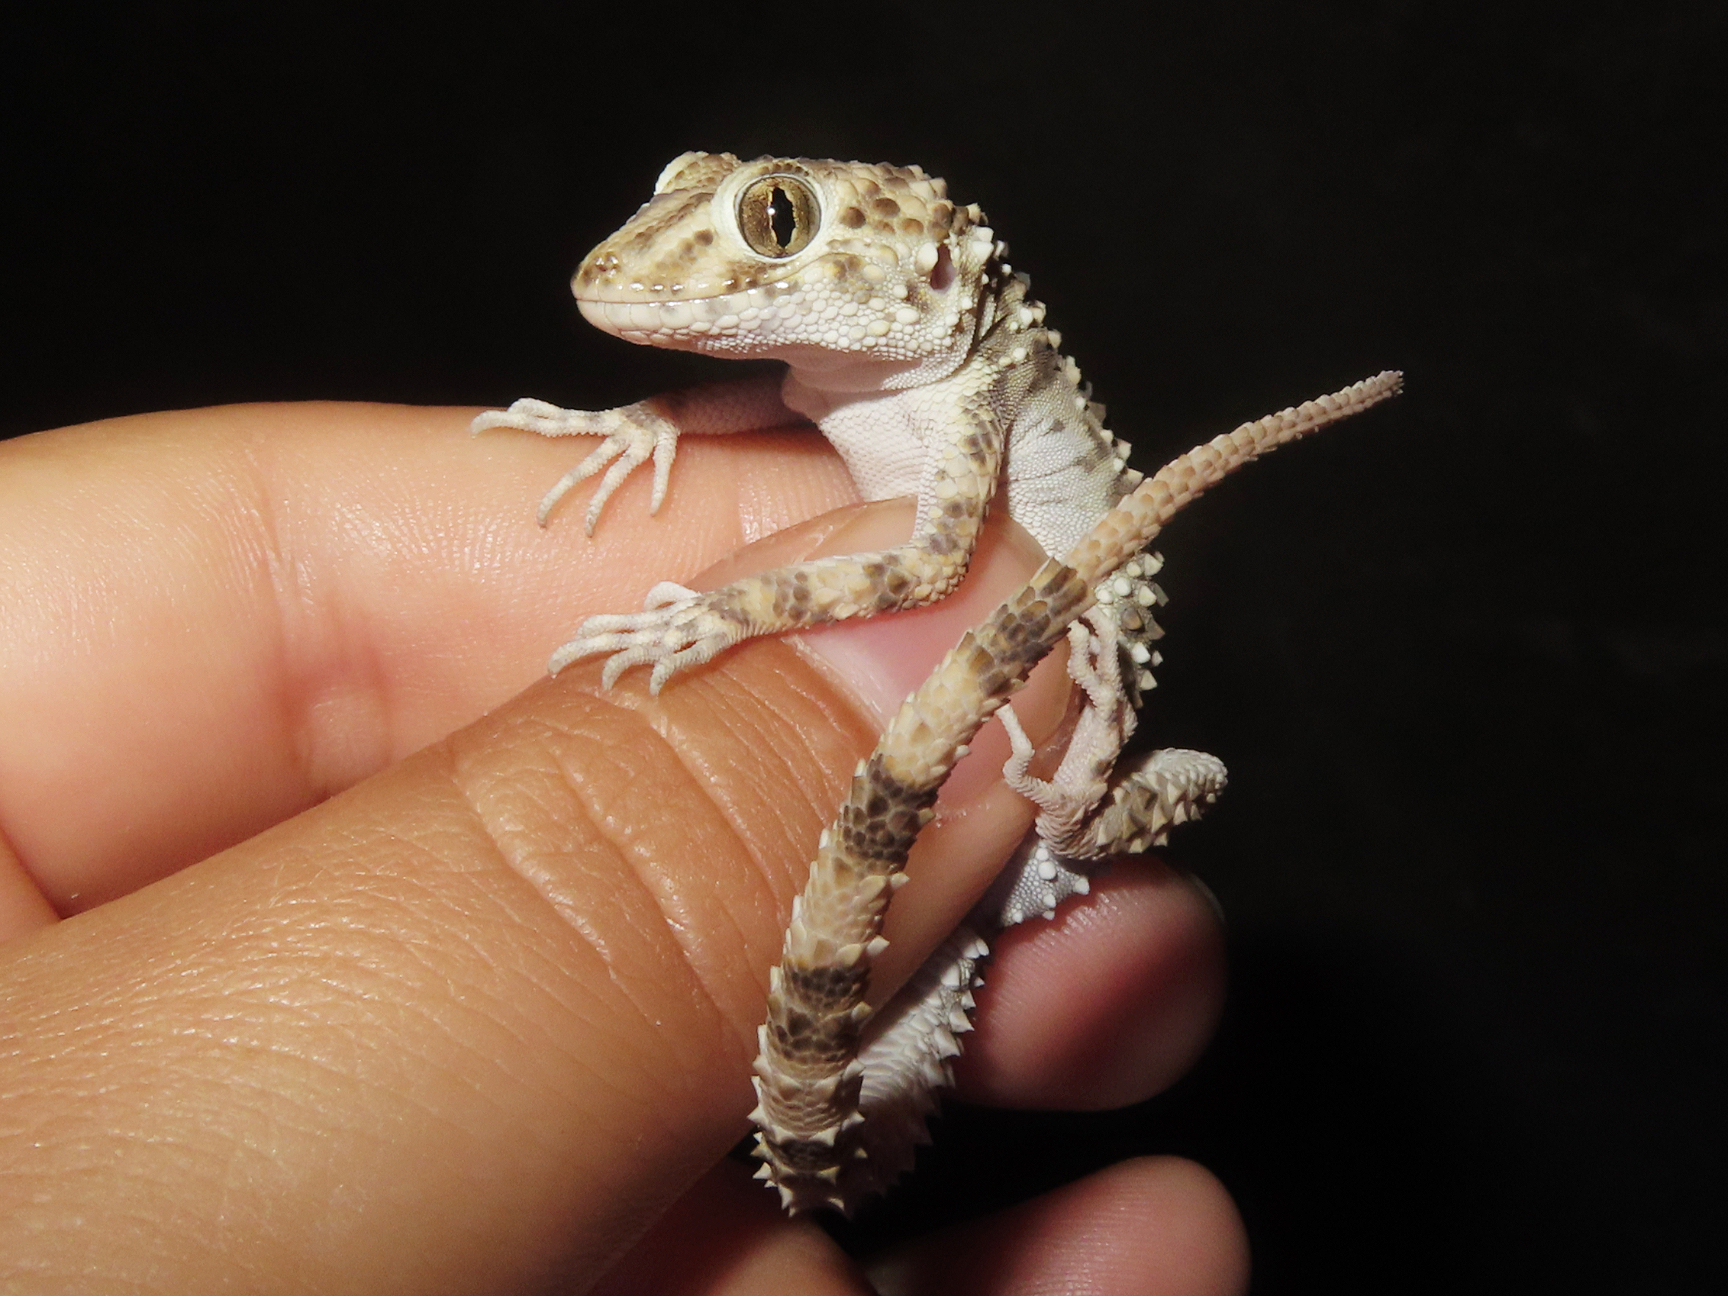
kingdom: Animalia
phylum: Chordata
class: Squamata
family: Gekkonidae
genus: Tenuidactylus
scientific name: Tenuidactylus caspius
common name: Caspian bent-toed gecko
